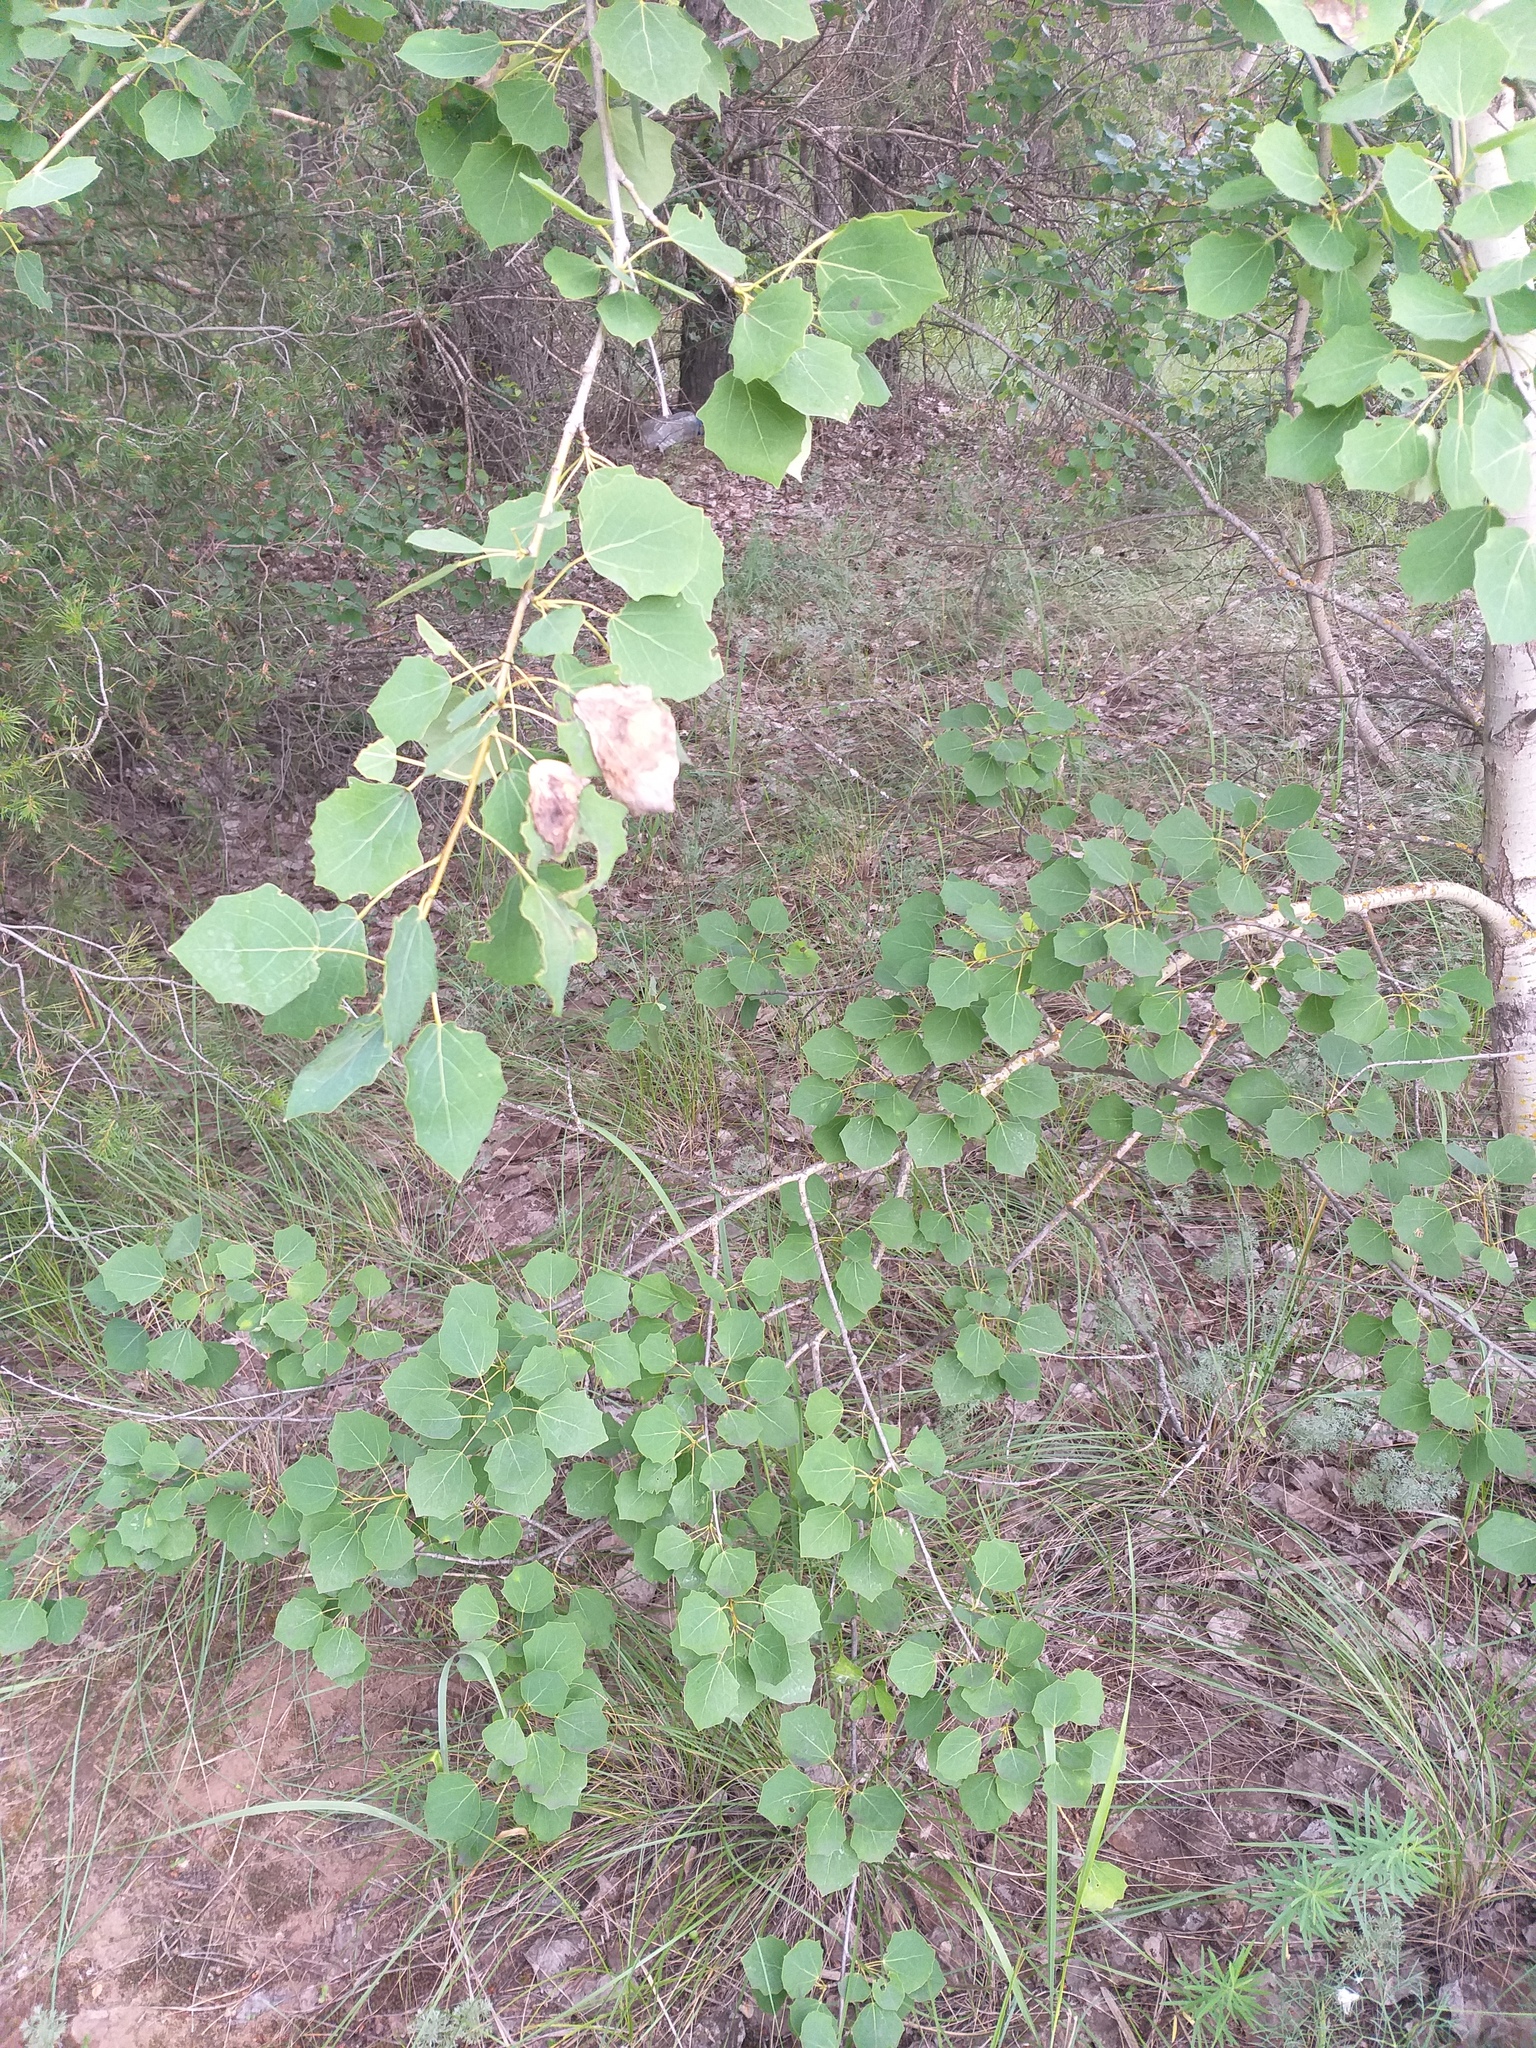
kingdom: Plantae
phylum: Tracheophyta
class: Magnoliopsida
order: Malpighiales
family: Salicaceae
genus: Populus
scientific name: Populus tremula
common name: European aspen
